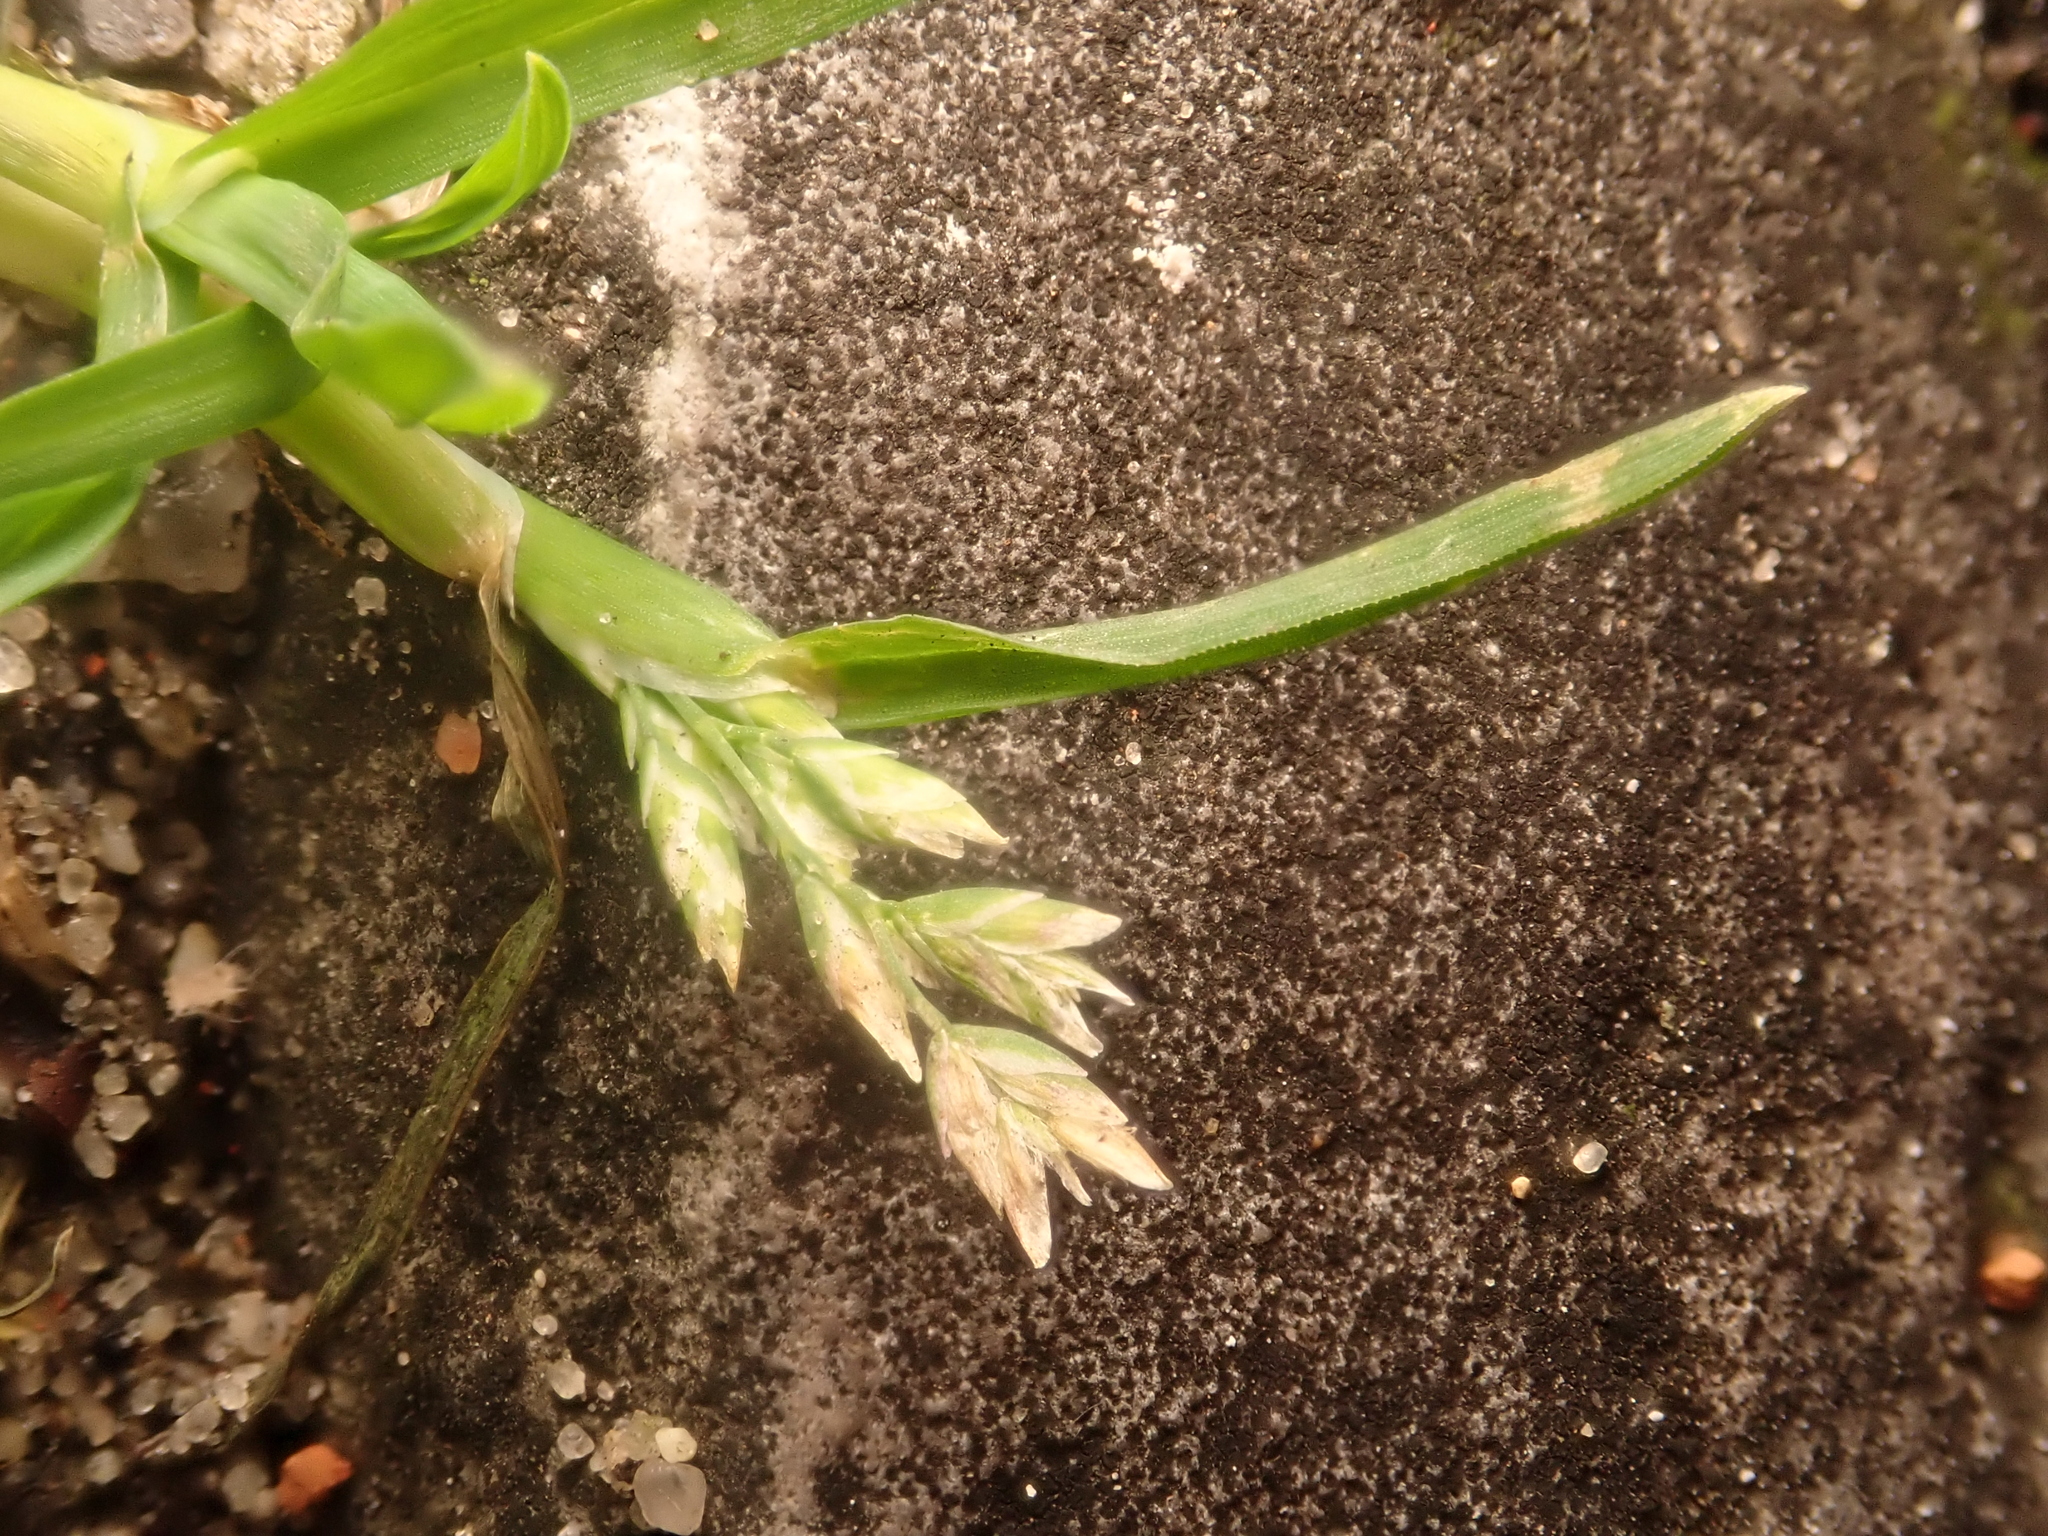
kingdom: Plantae
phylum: Tracheophyta
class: Liliopsida
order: Poales
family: Poaceae
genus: Poa
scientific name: Poa annua
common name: Annual bluegrass
